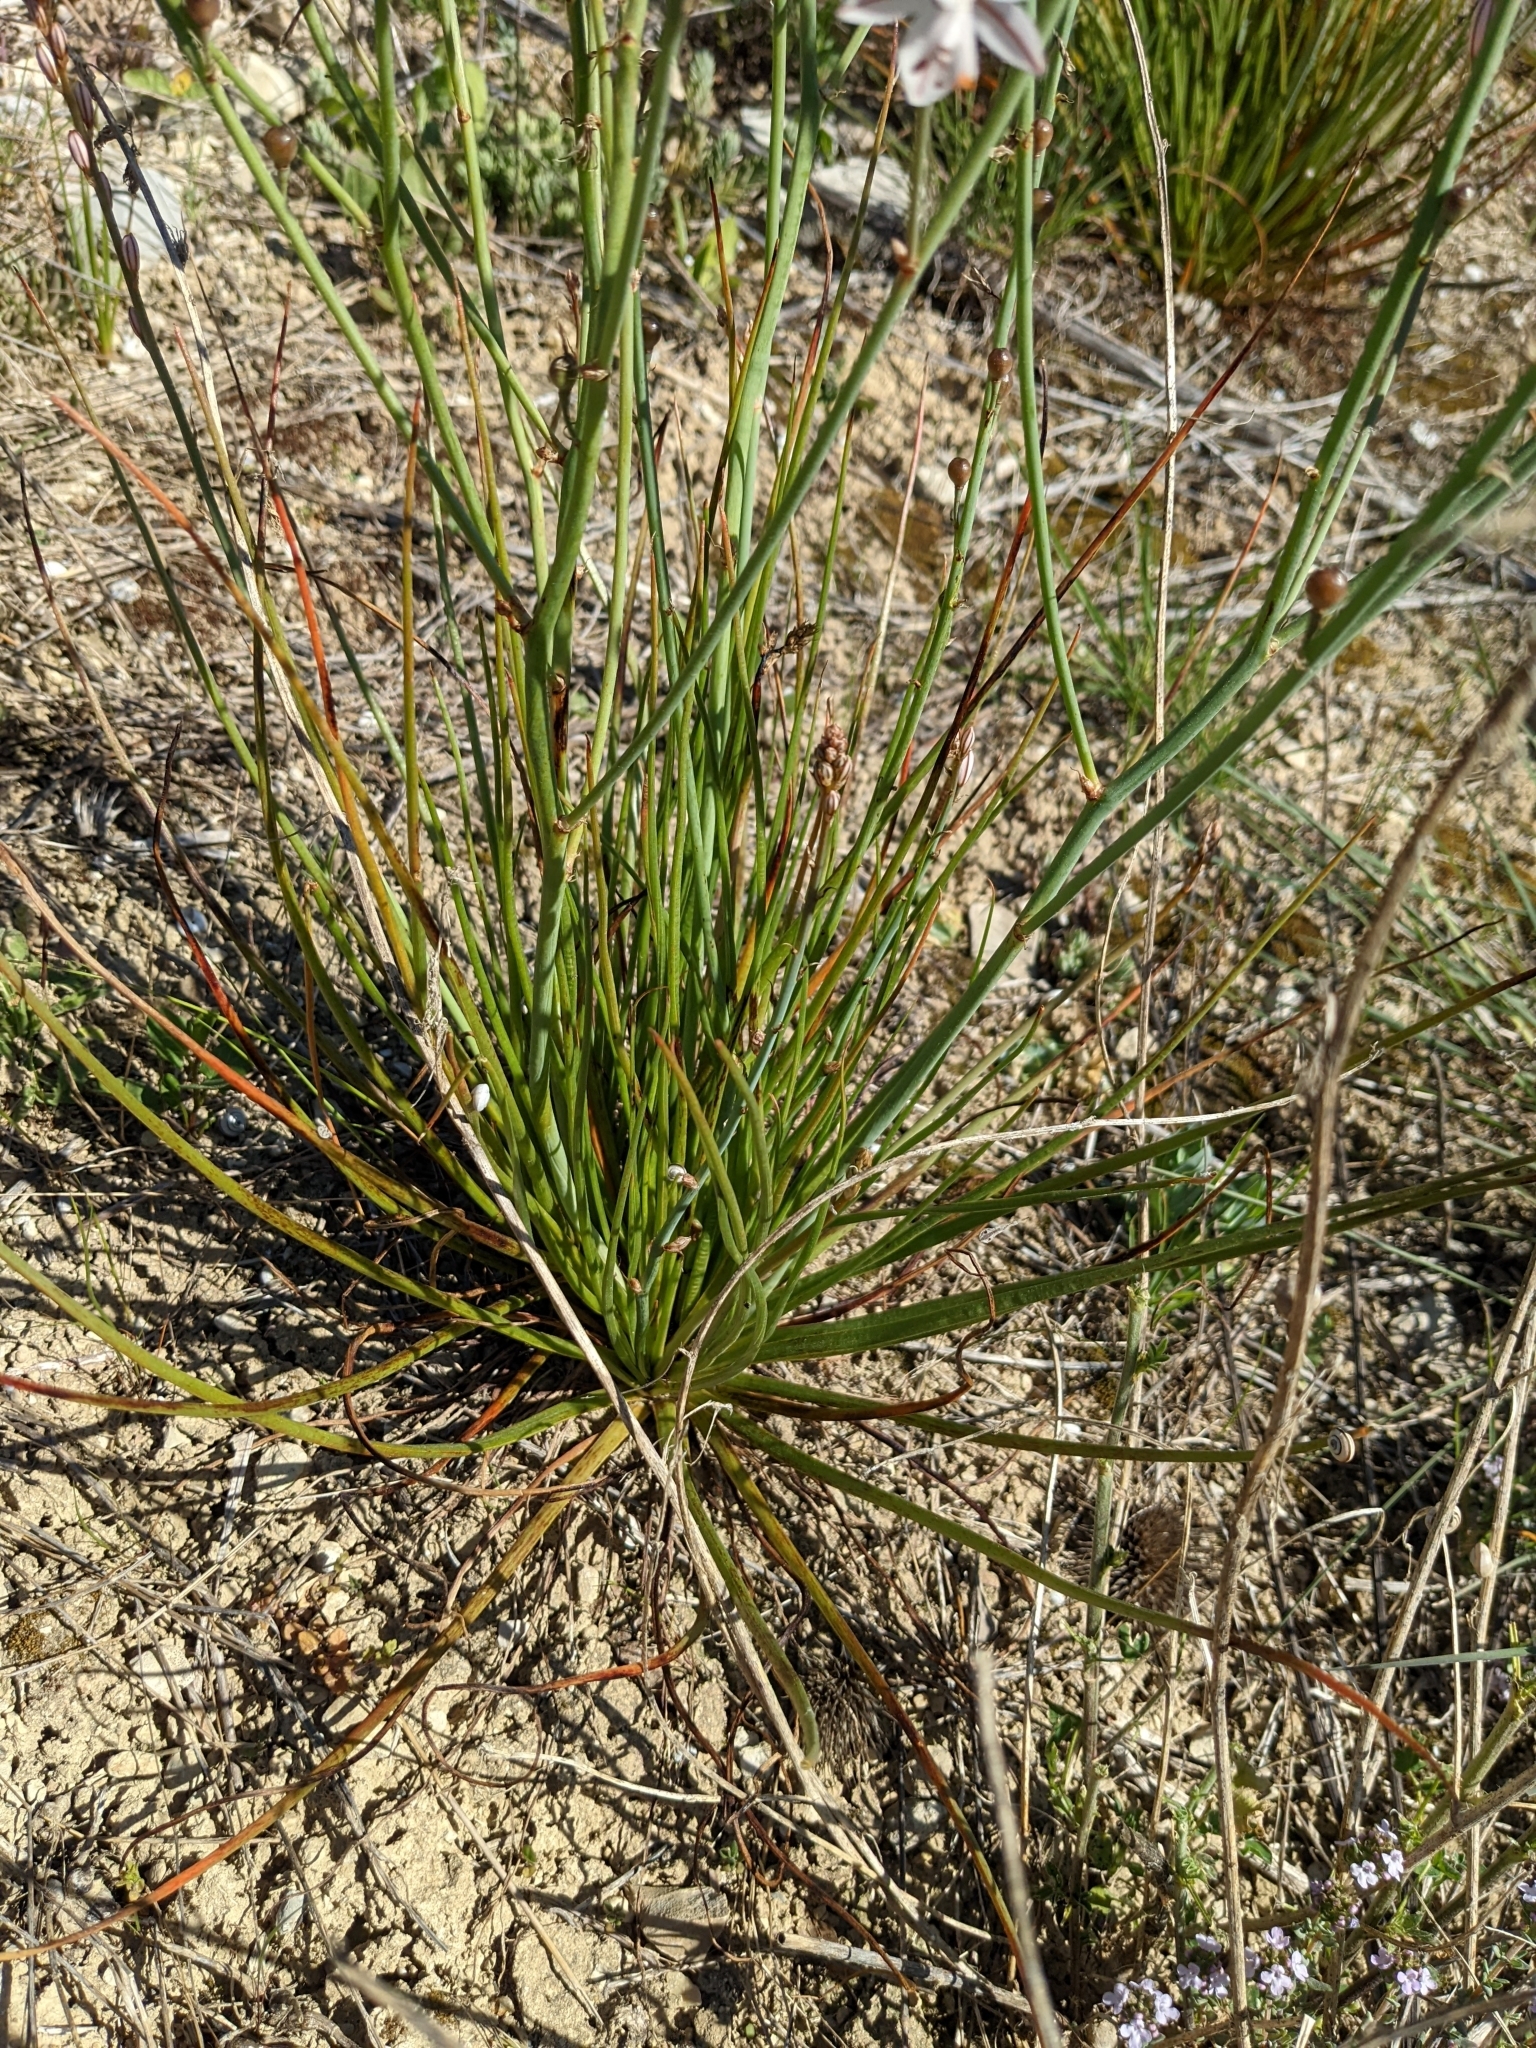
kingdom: Plantae
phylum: Tracheophyta
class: Liliopsida
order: Asparagales
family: Asphodelaceae
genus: Asphodelus
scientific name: Asphodelus fistulosus
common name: Onionweed
